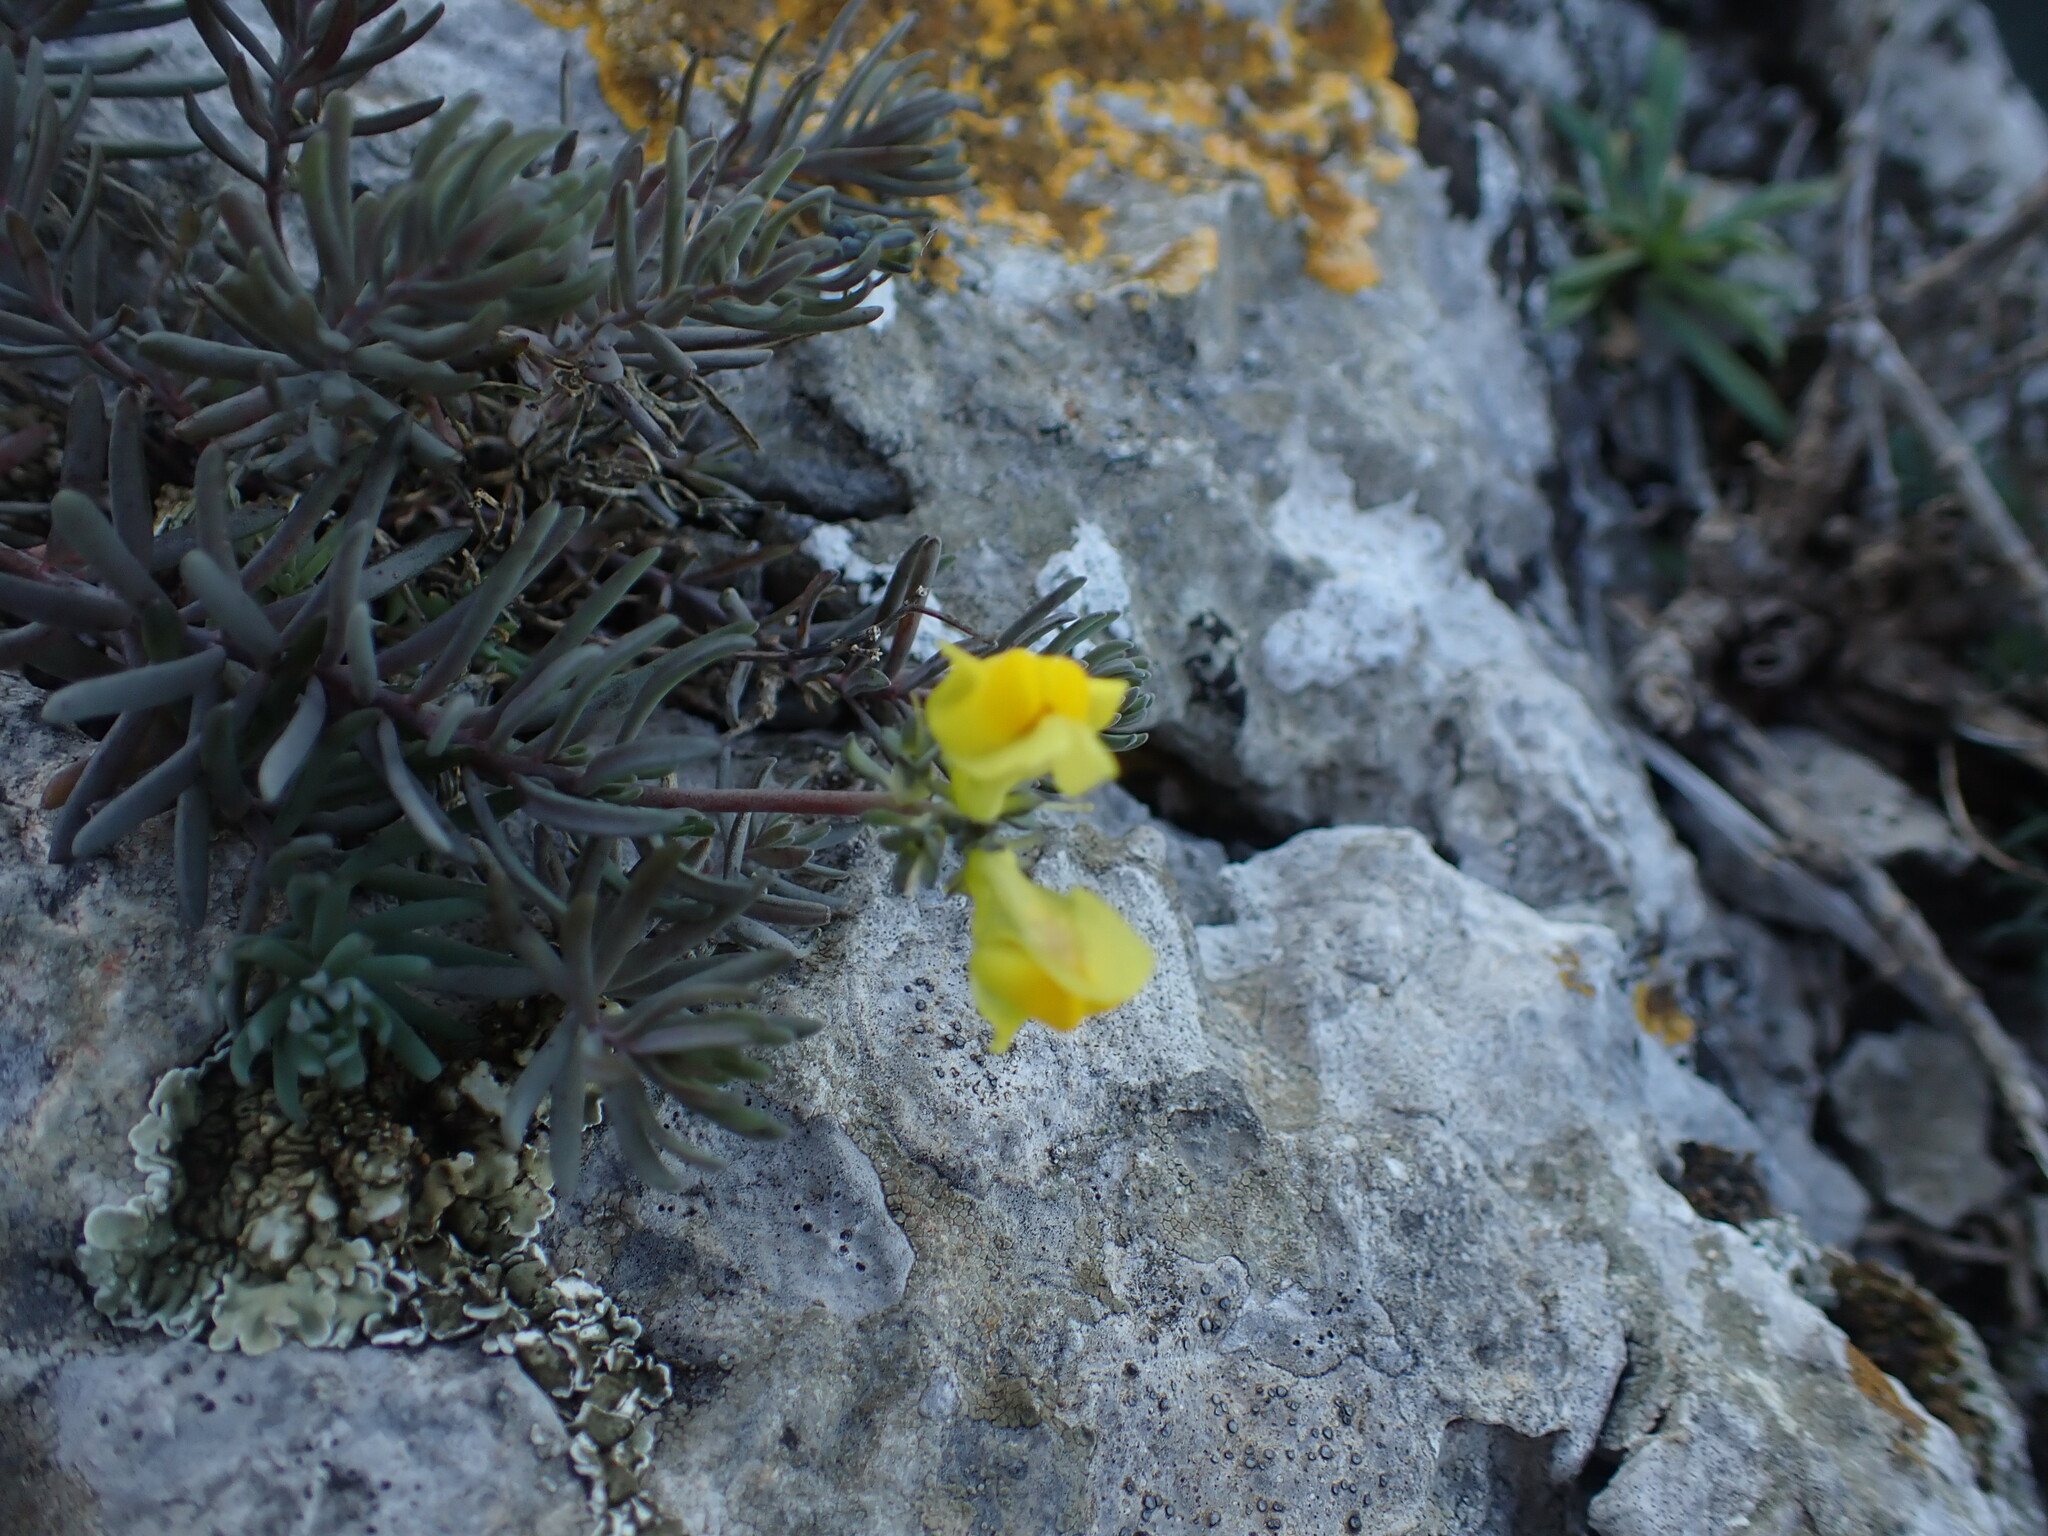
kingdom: Plantae
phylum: Tracheophyta
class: Magnoliopsida
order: Lamiales
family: Plantaginaceae
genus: Linaria
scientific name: Linaria supina
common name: Prostrate toadflax
